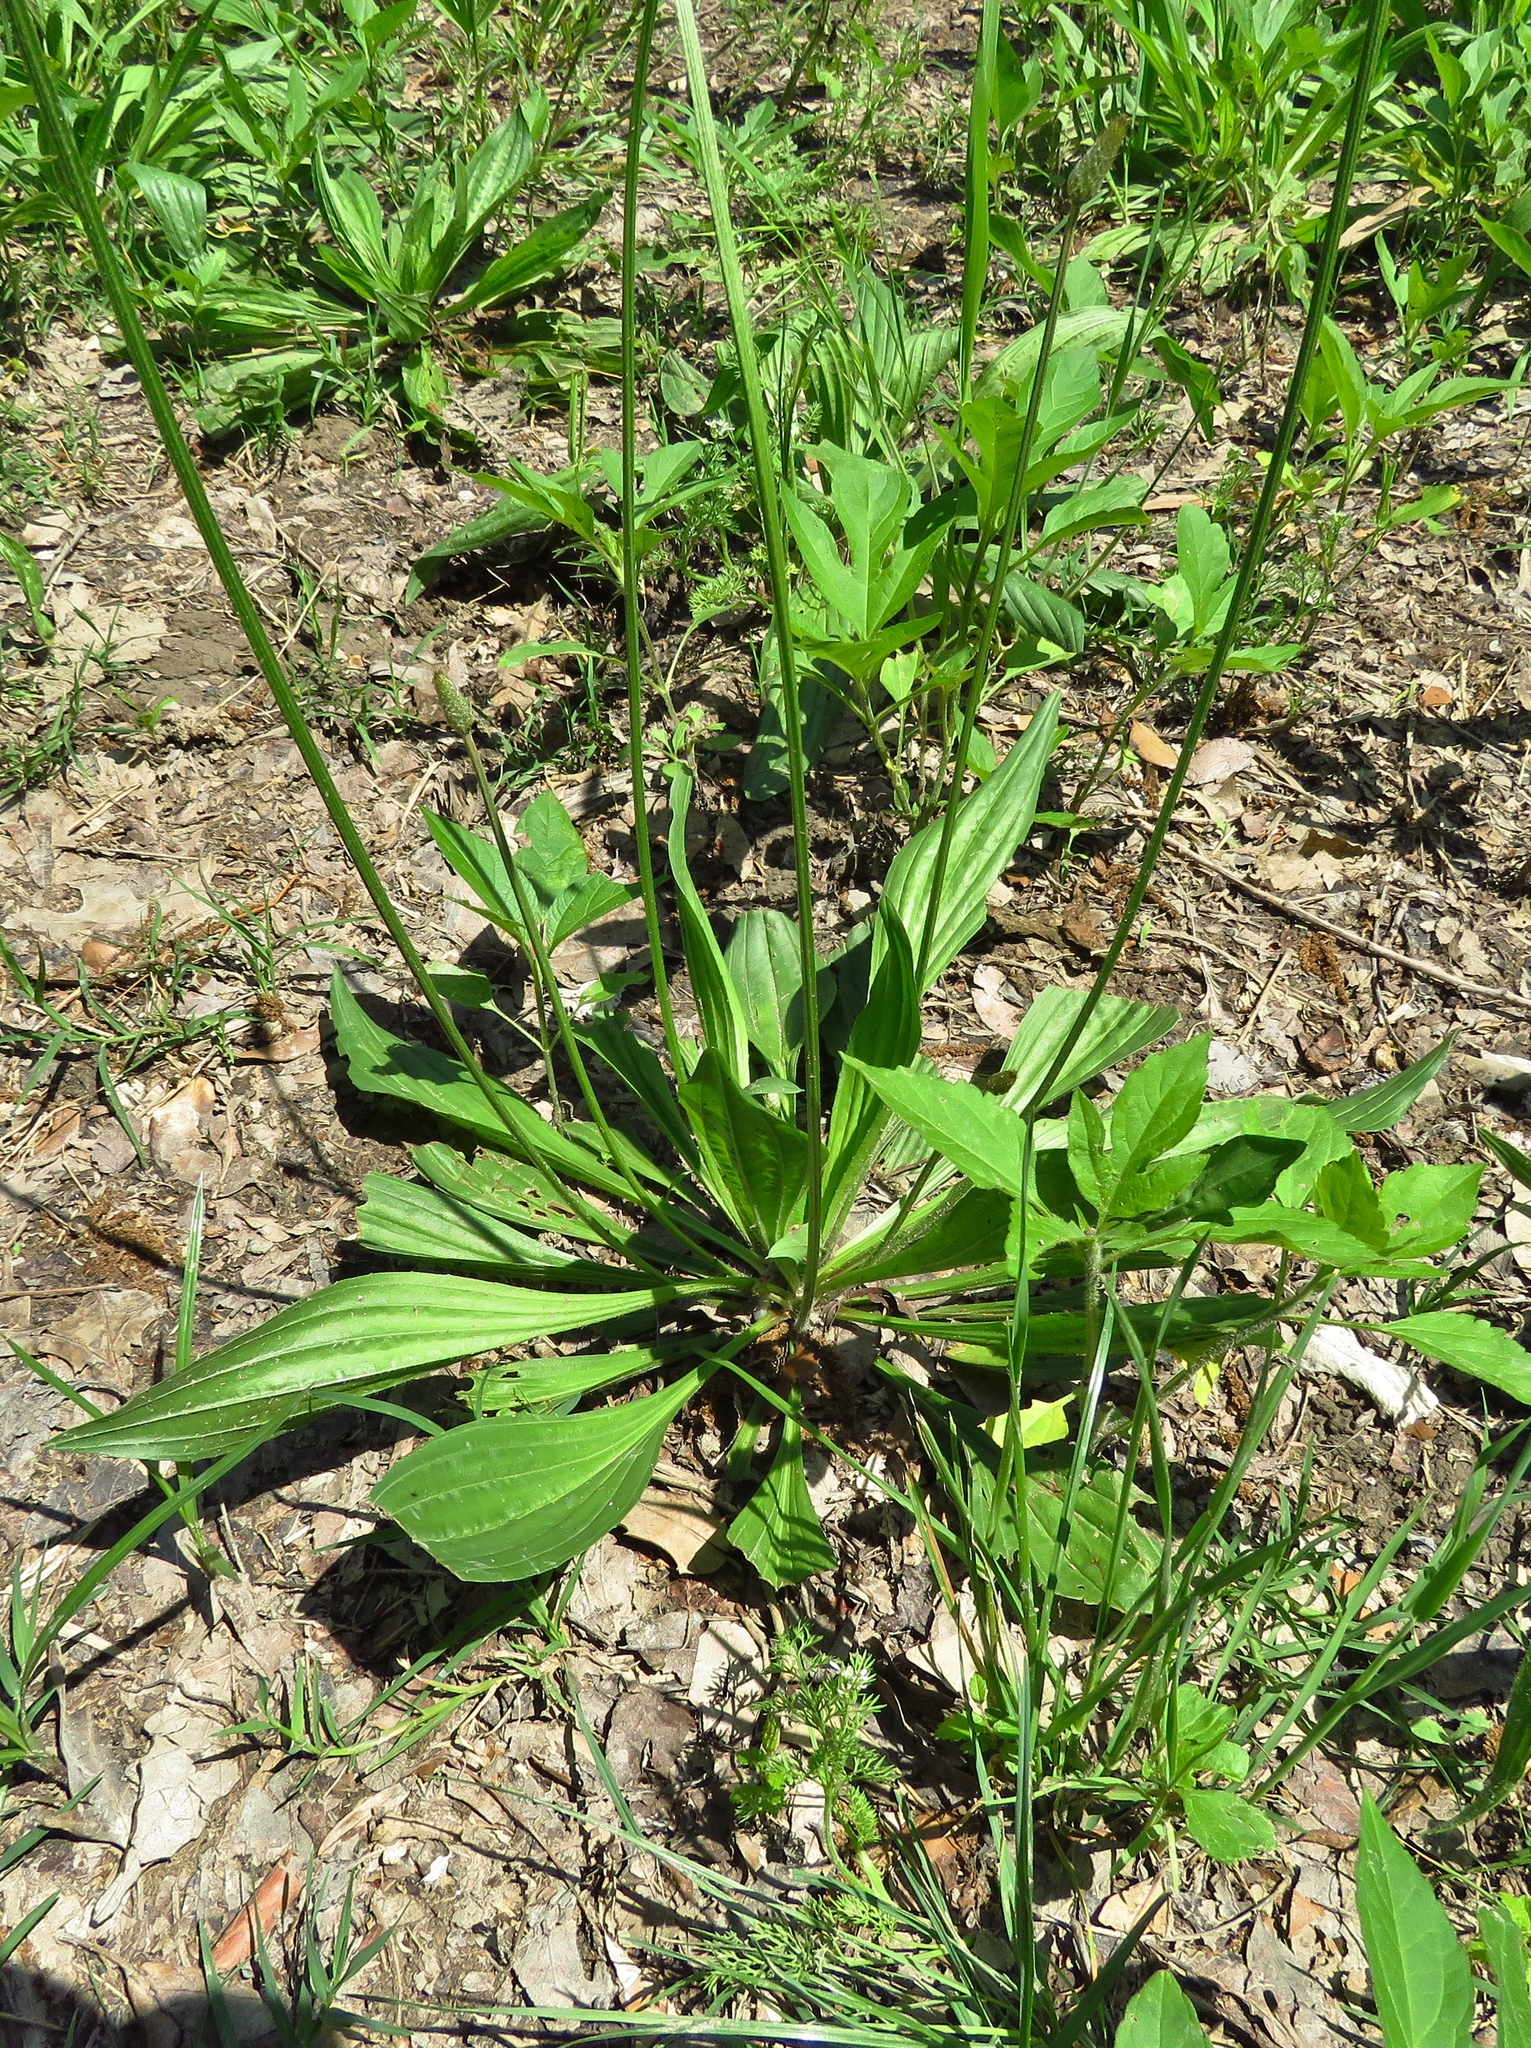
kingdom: Plantae
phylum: Tracheophyta
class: Magnoliopsida
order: Lamiales
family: Plantaginaceae
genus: Plantago
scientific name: Plantago lanceolata
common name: Ribwort plantain
